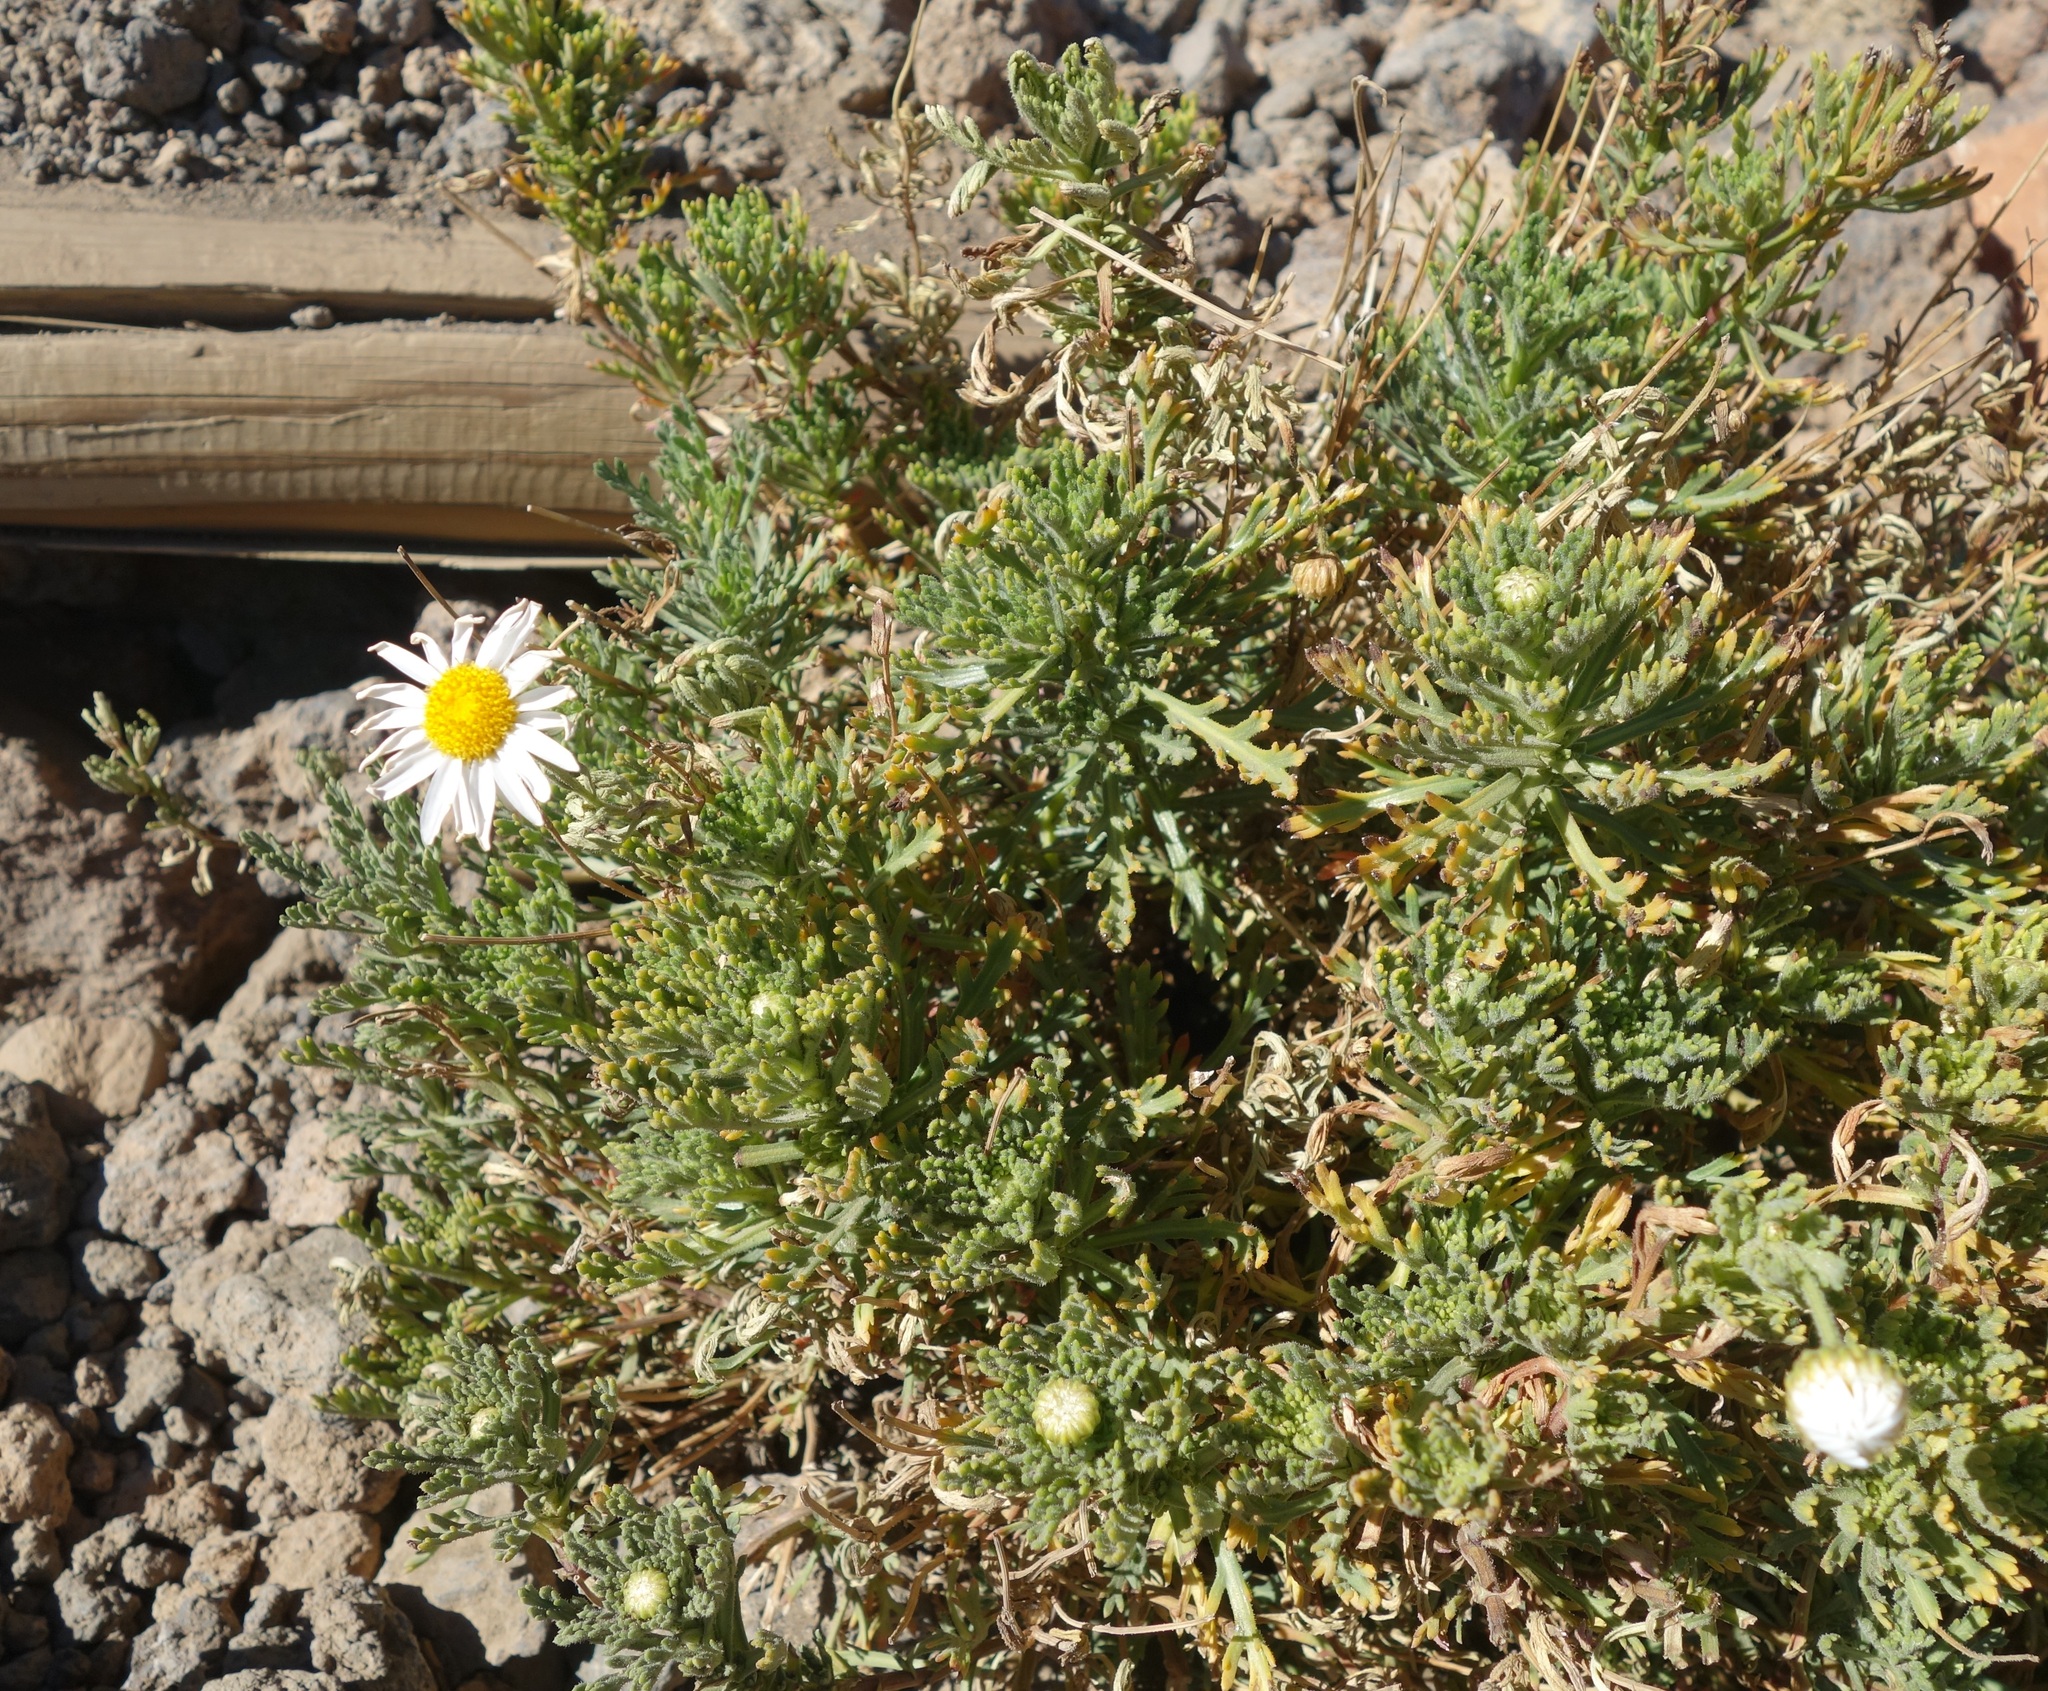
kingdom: Plantae
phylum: Tracheophyta
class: Magnoliopsida
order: Asterales
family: Asteraceae
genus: Argyranthemum
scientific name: Argyranthemum tenerifae
